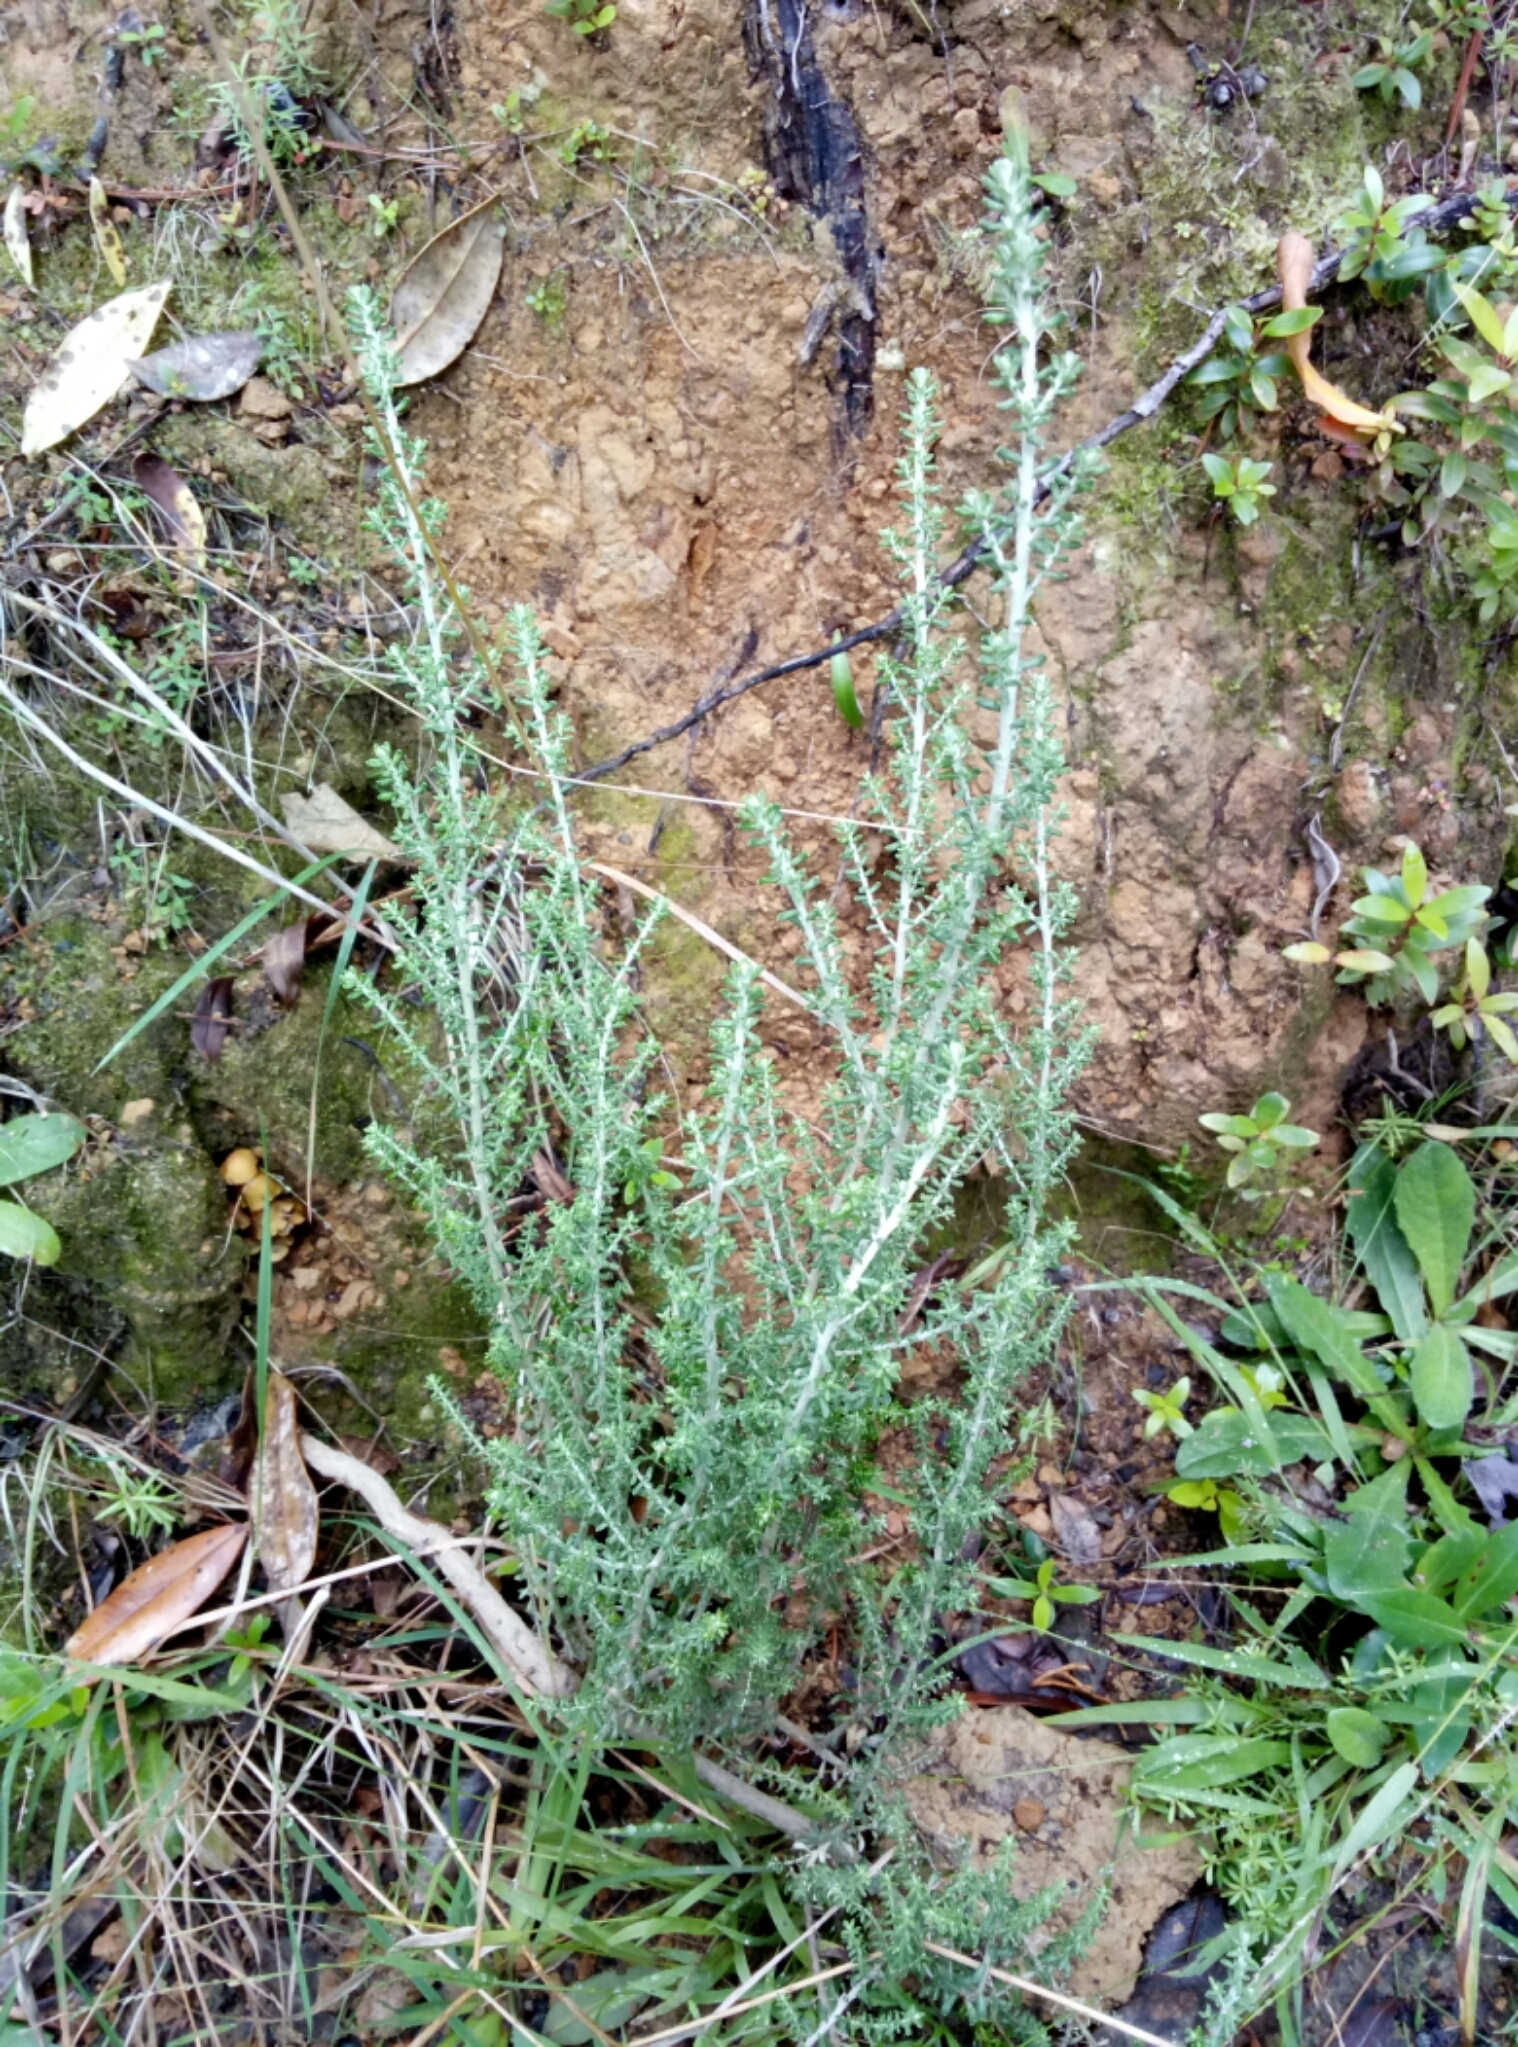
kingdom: Plantae
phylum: Tracheophyta
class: Magnoliopsida
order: Asterales
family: Asteraceae
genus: Ozothamnus
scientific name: Ozothamnus leptophyllus
